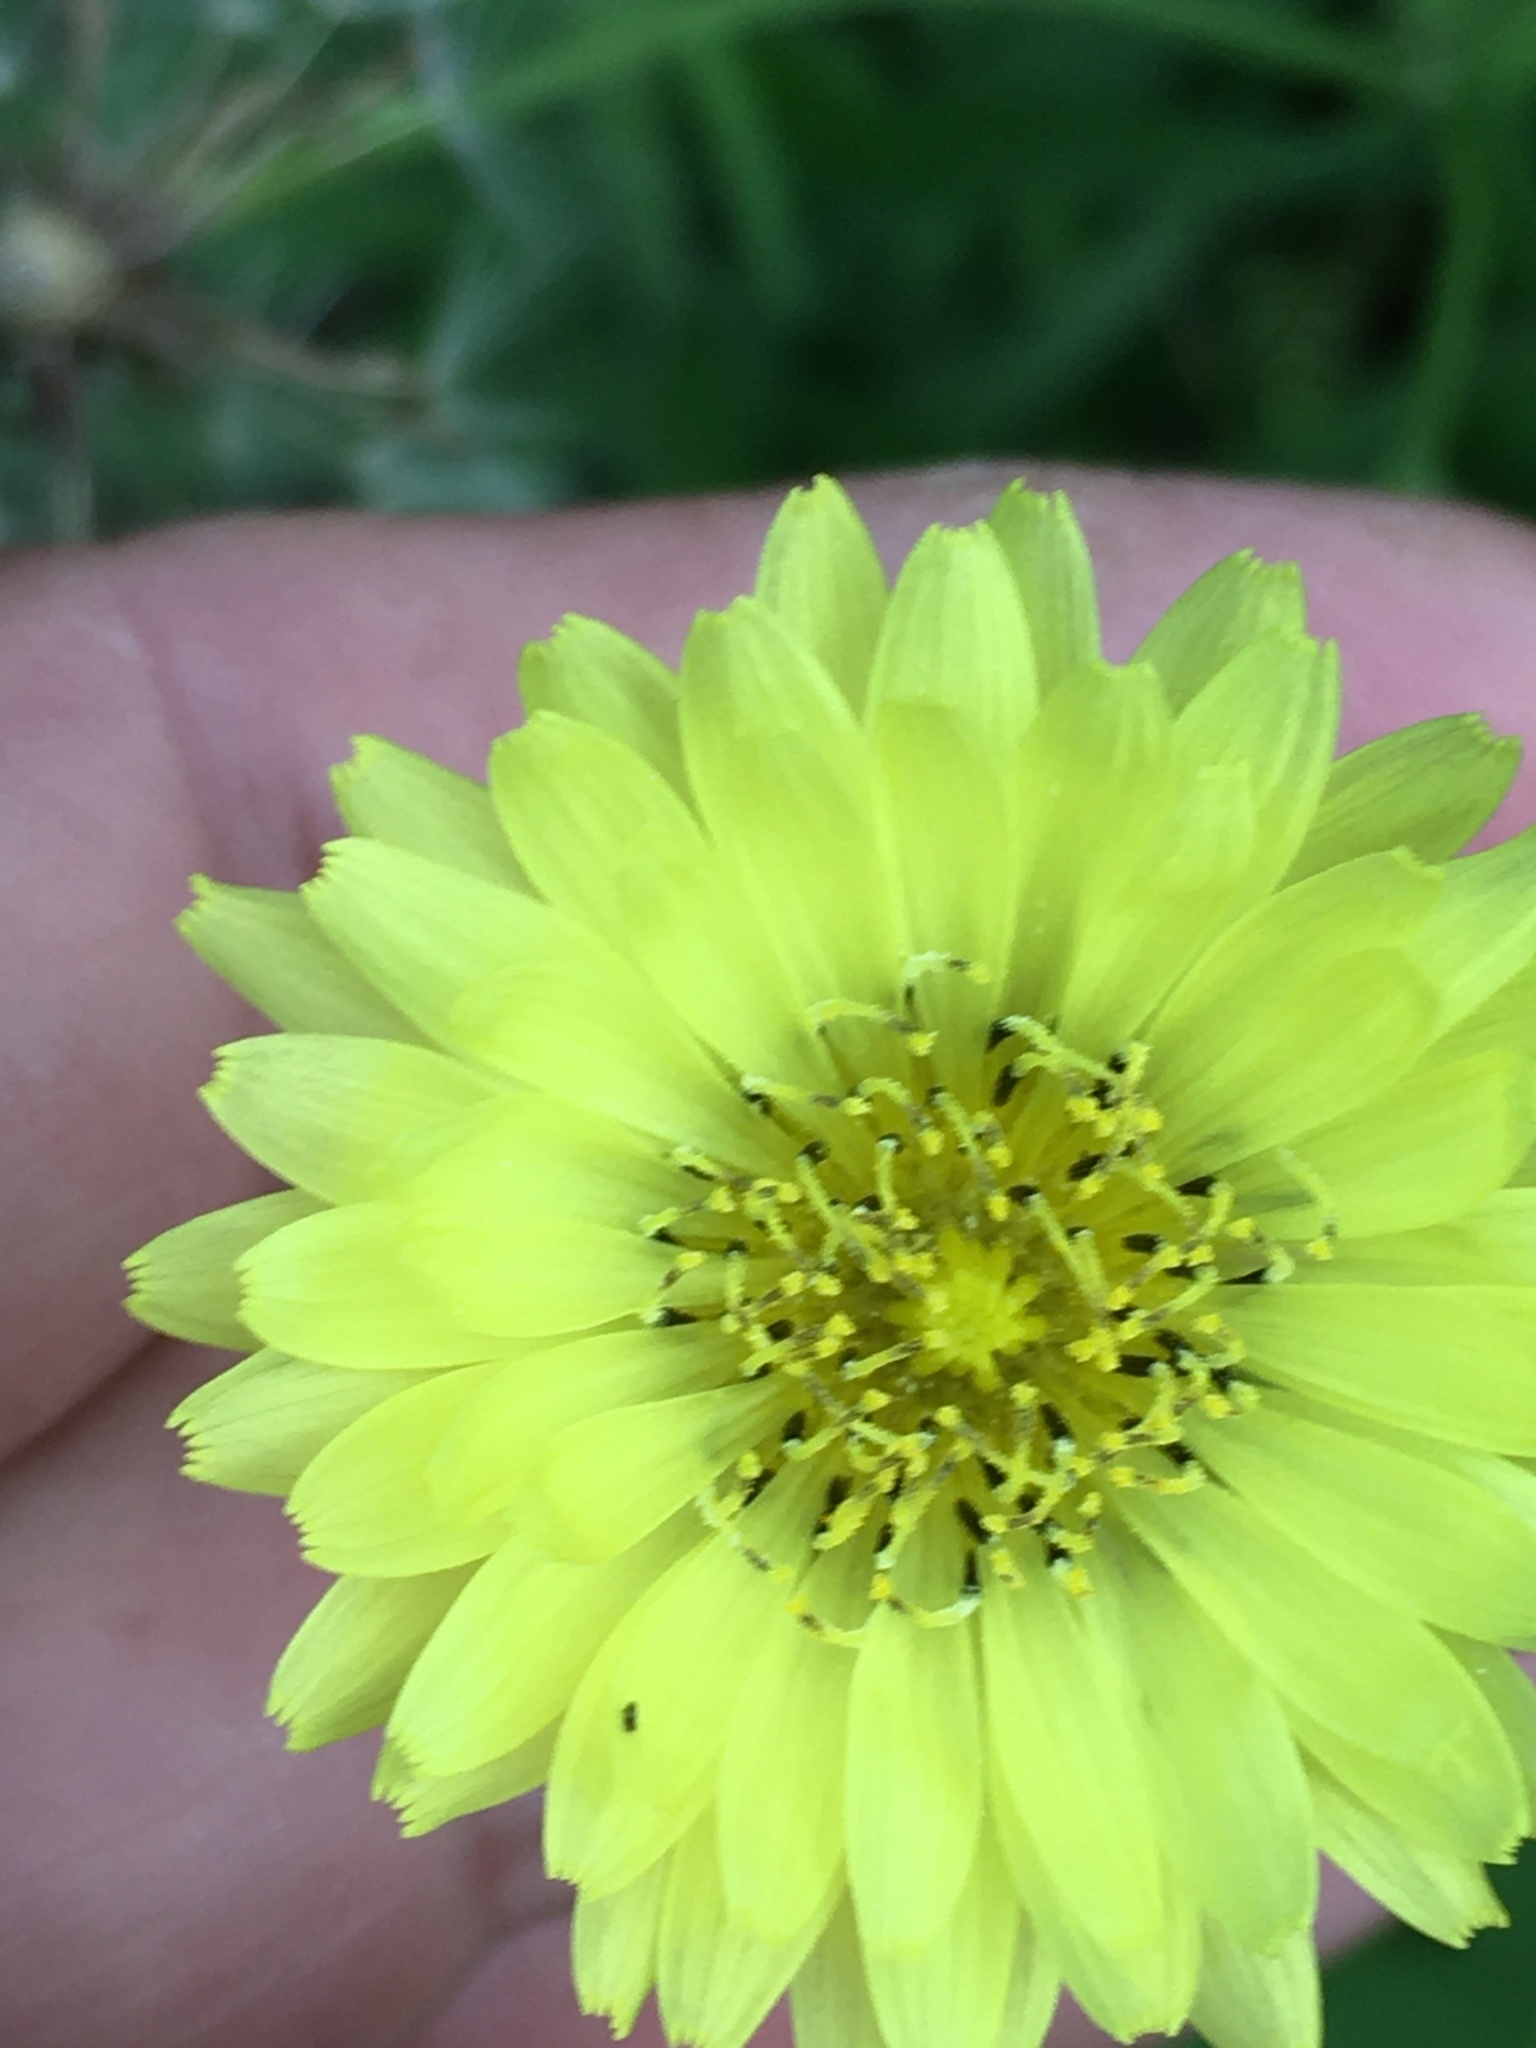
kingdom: Plantae
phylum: Tracheophyta
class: Magnoliopsida
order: Asterales
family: Asteraceae
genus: Pyrrhopappus
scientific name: Pyrrhopappus carolinianus
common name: Carolina desert-chicory
